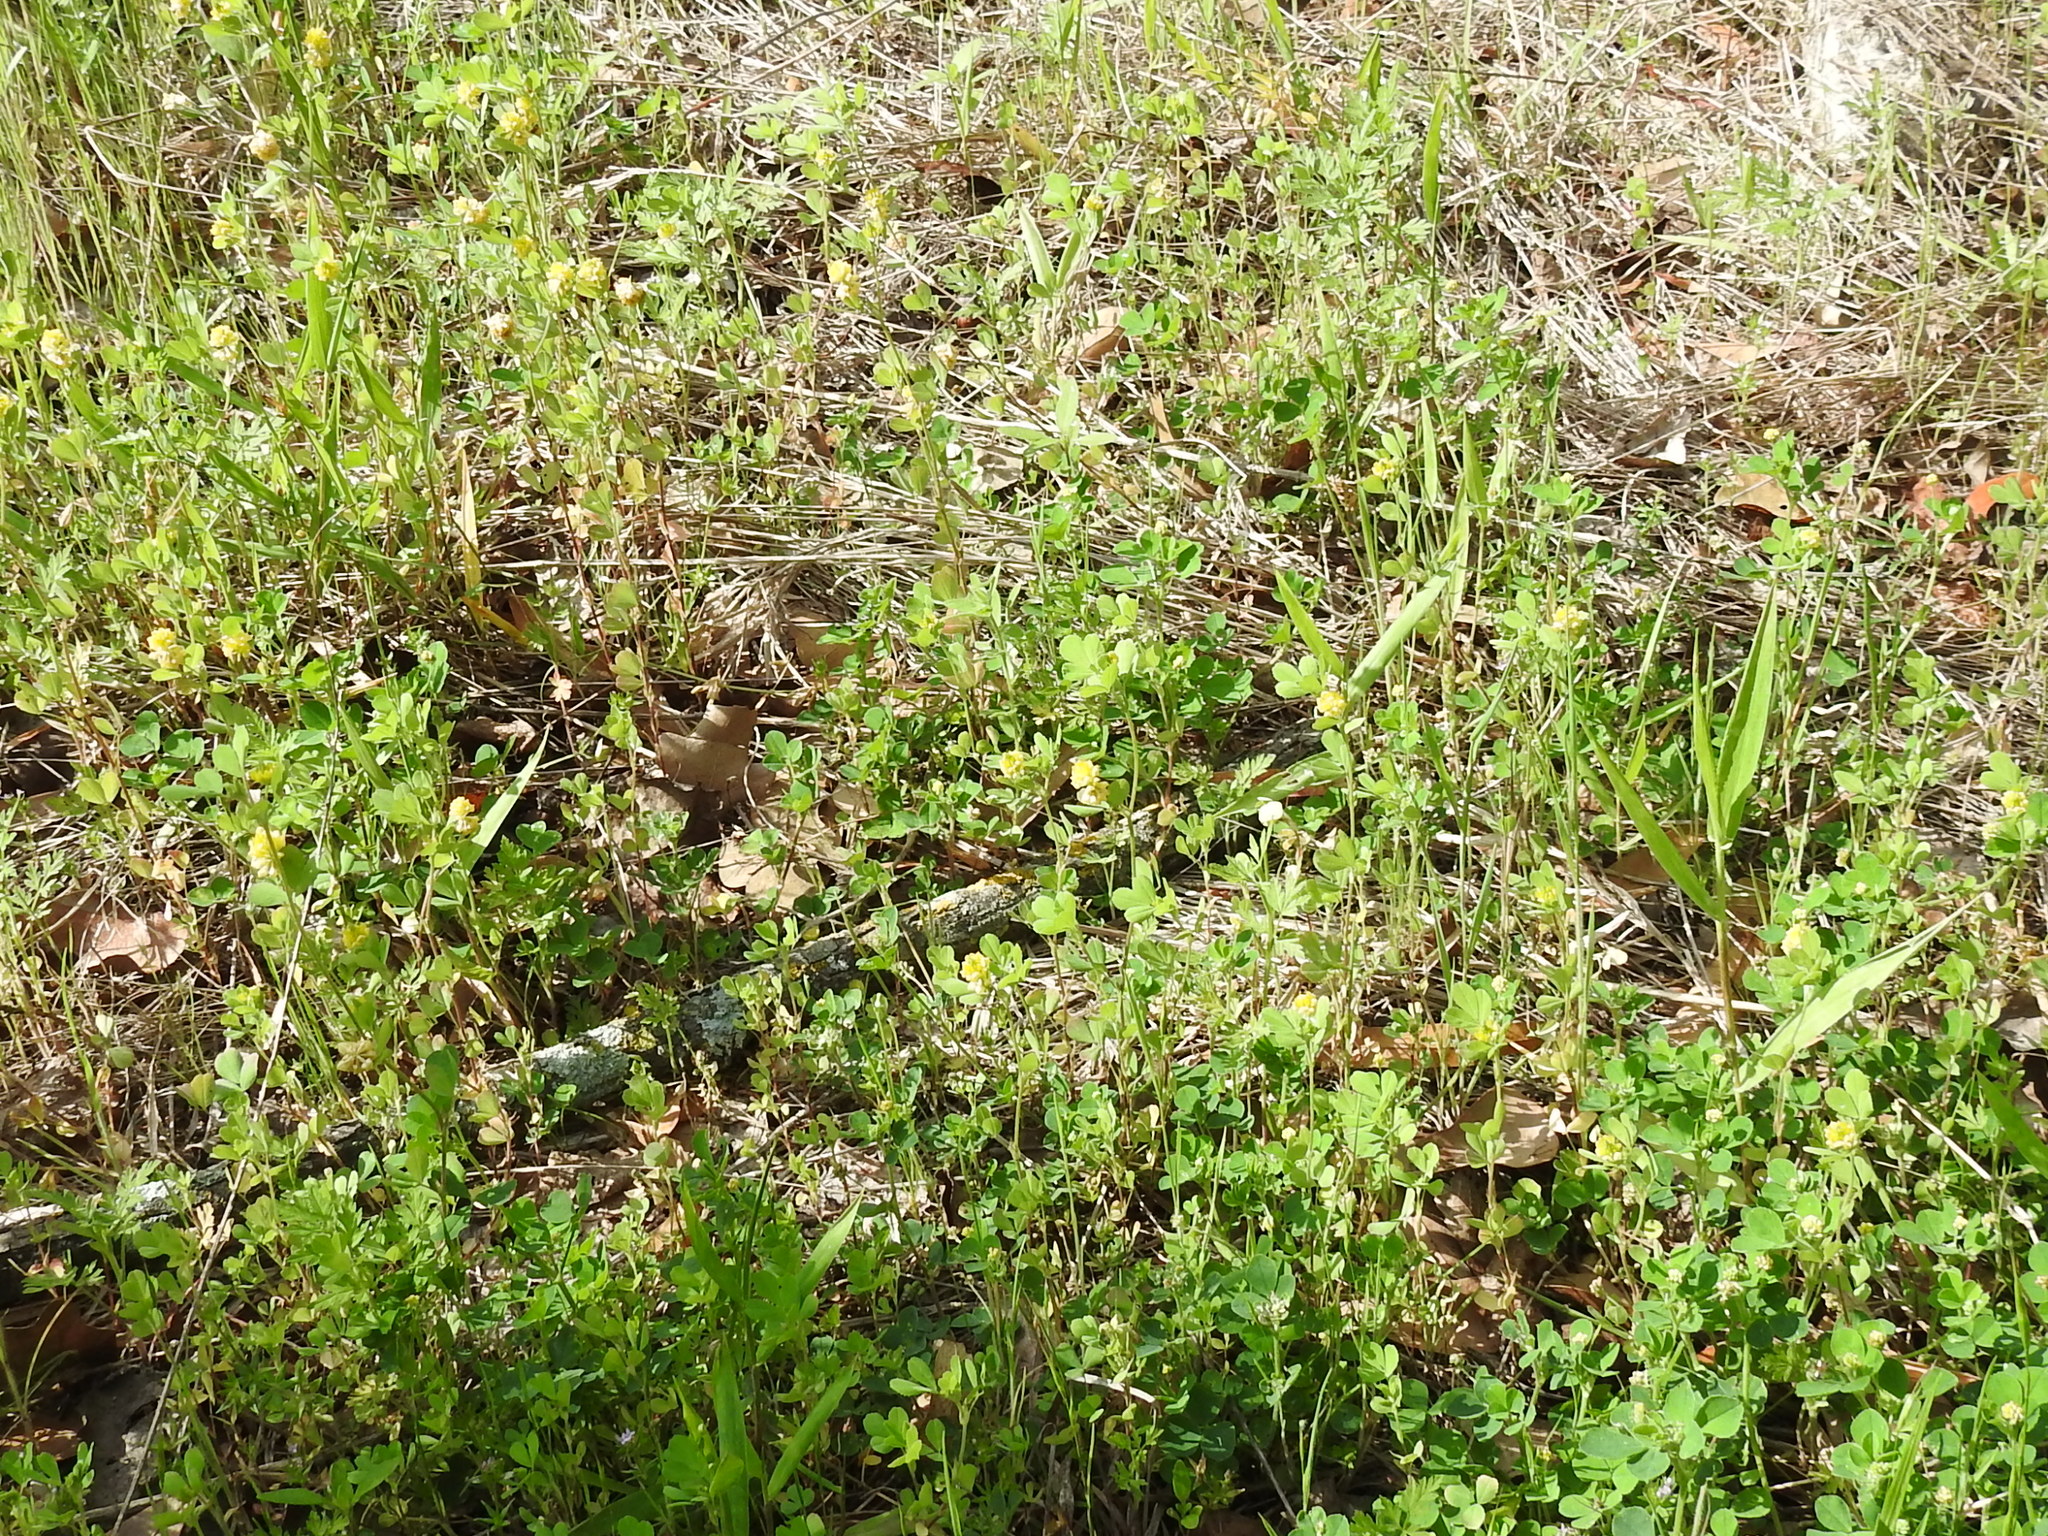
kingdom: Plantae
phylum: Tracheophyta
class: Magnoliopsida
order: Fabales
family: Fabaceae
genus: Trifolium
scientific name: Trifolium campestre
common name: Field clover
